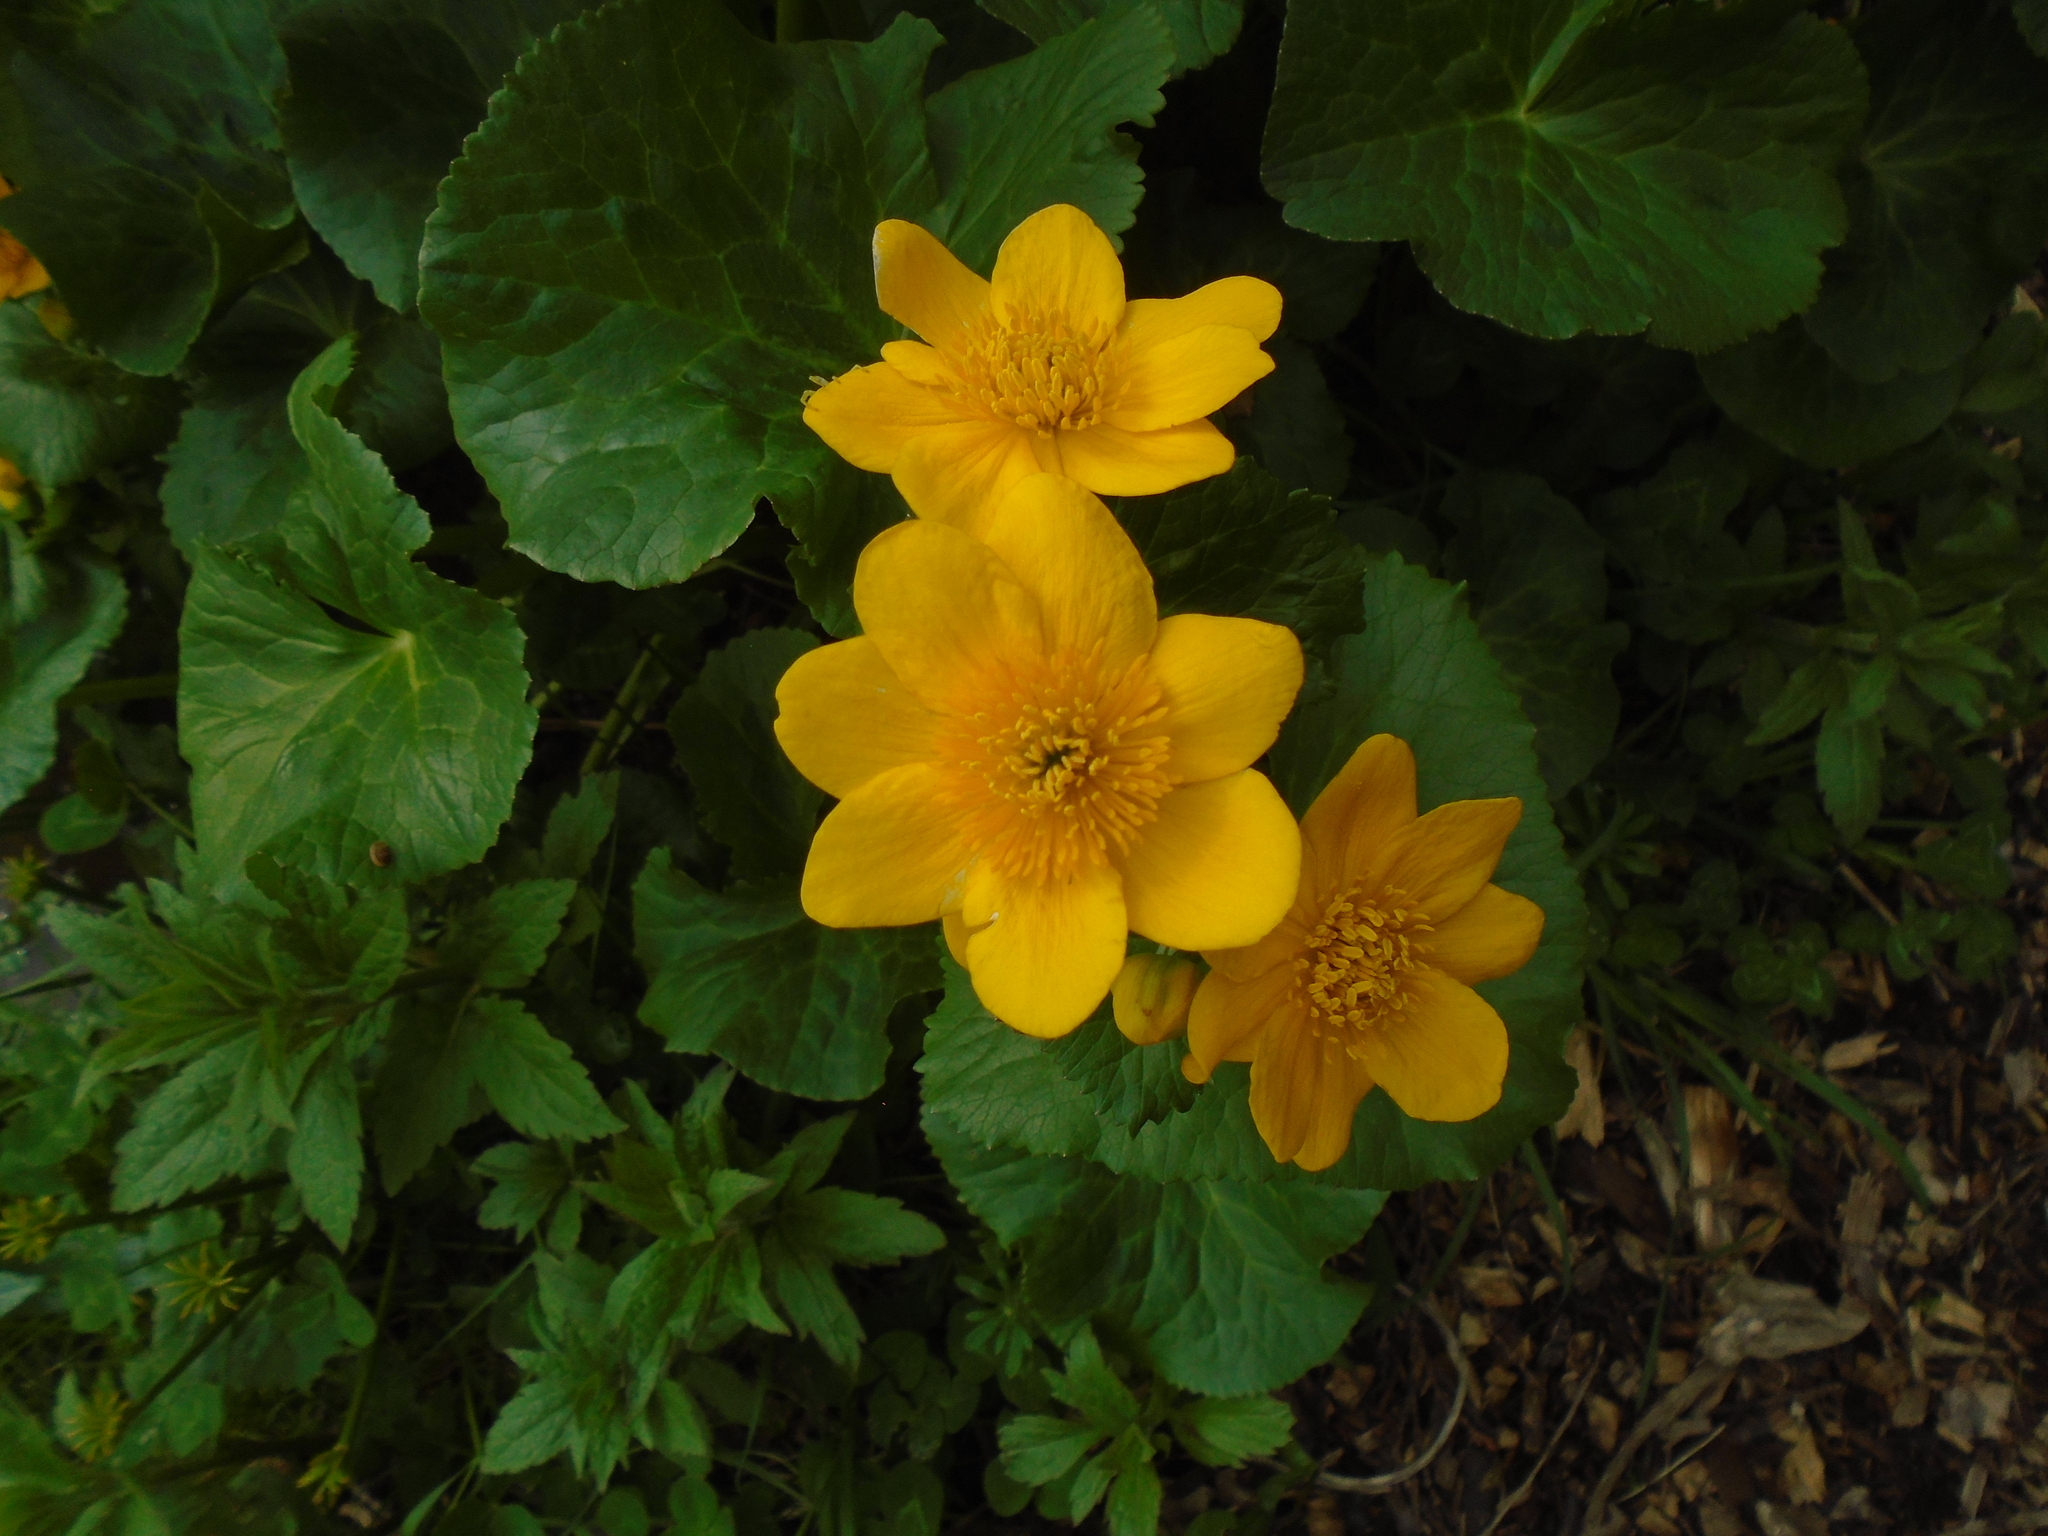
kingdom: Plantae
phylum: Tracheophyta
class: Magnoliopsida
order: Ranunculales
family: Ranunculaceae
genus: Caltha
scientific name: Caltha palustris
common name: Marsh marigold
